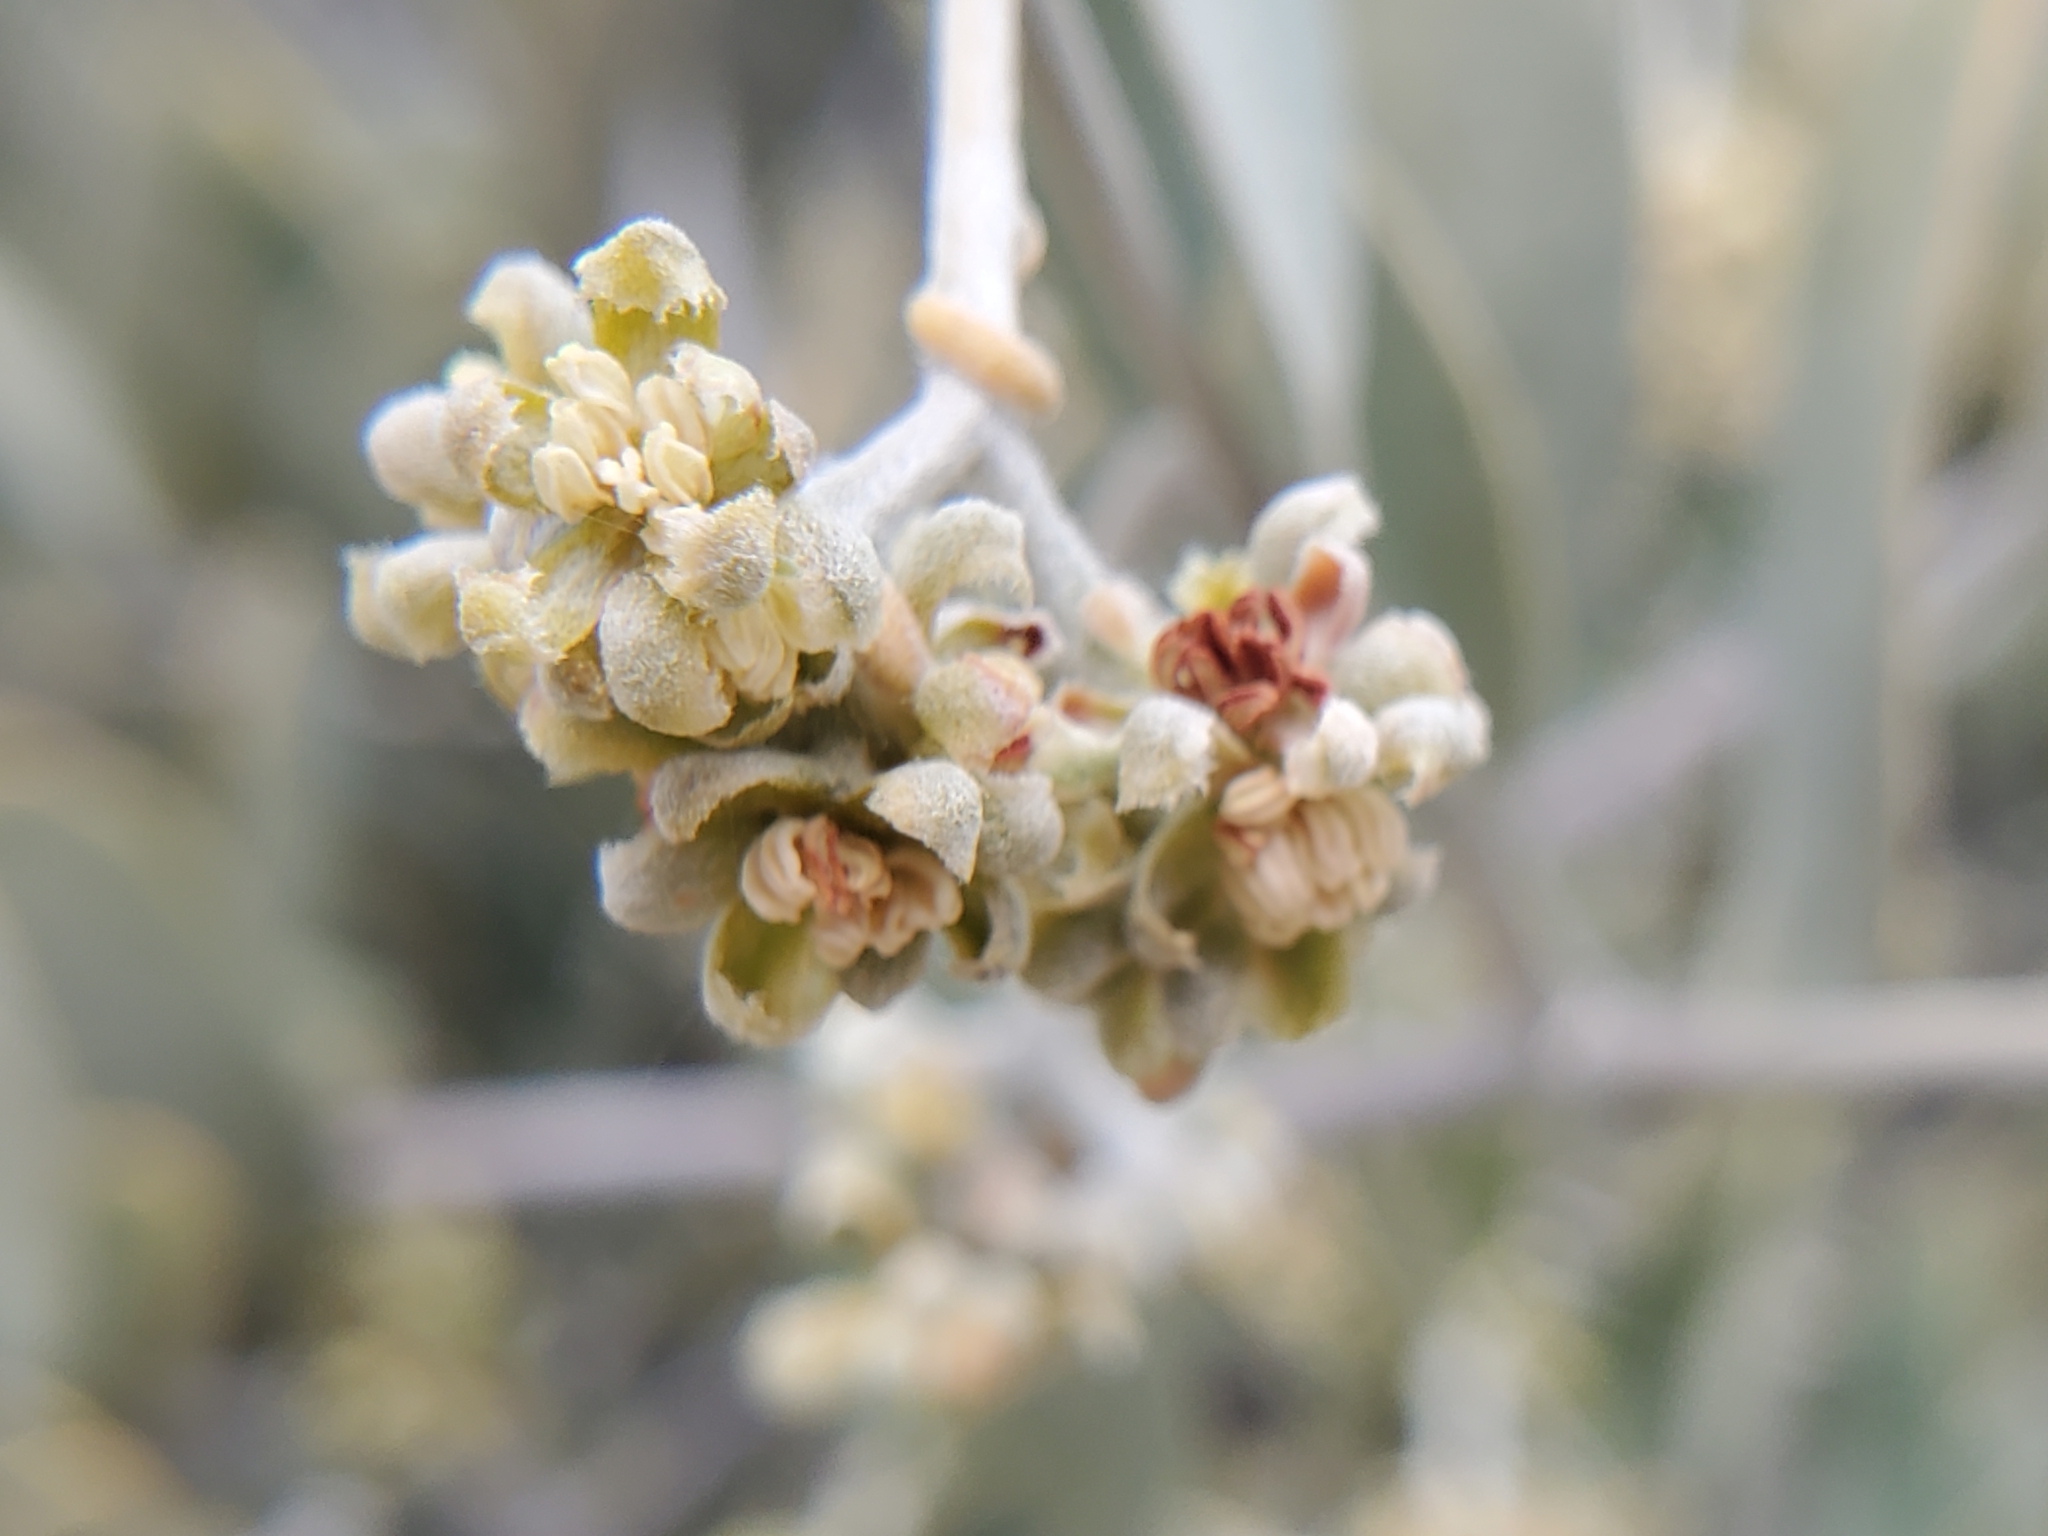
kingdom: Plantae
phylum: Tracheophyta
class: Magnoliopsida
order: Caryophyllales
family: Simmondsiaceae
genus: Simmondsia
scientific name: Simmondsia chinensis
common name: Jojoba
